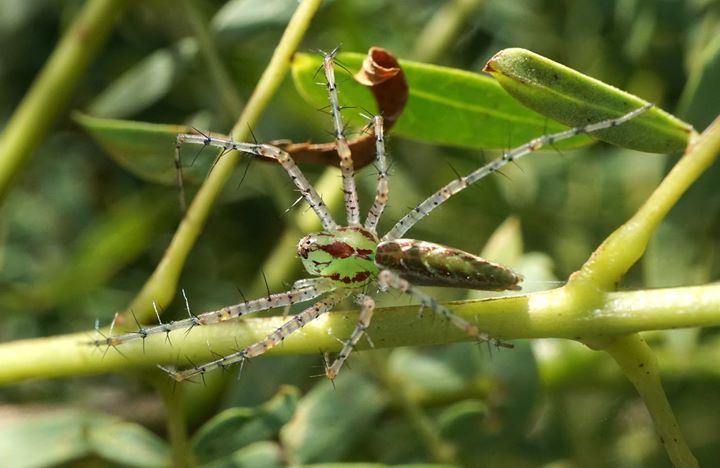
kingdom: Animalia
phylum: Arthropoda
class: Arachnida
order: Araneae
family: Oxyopidae
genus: Peucetia
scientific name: Peucetia viridans
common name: Lynx spiders
